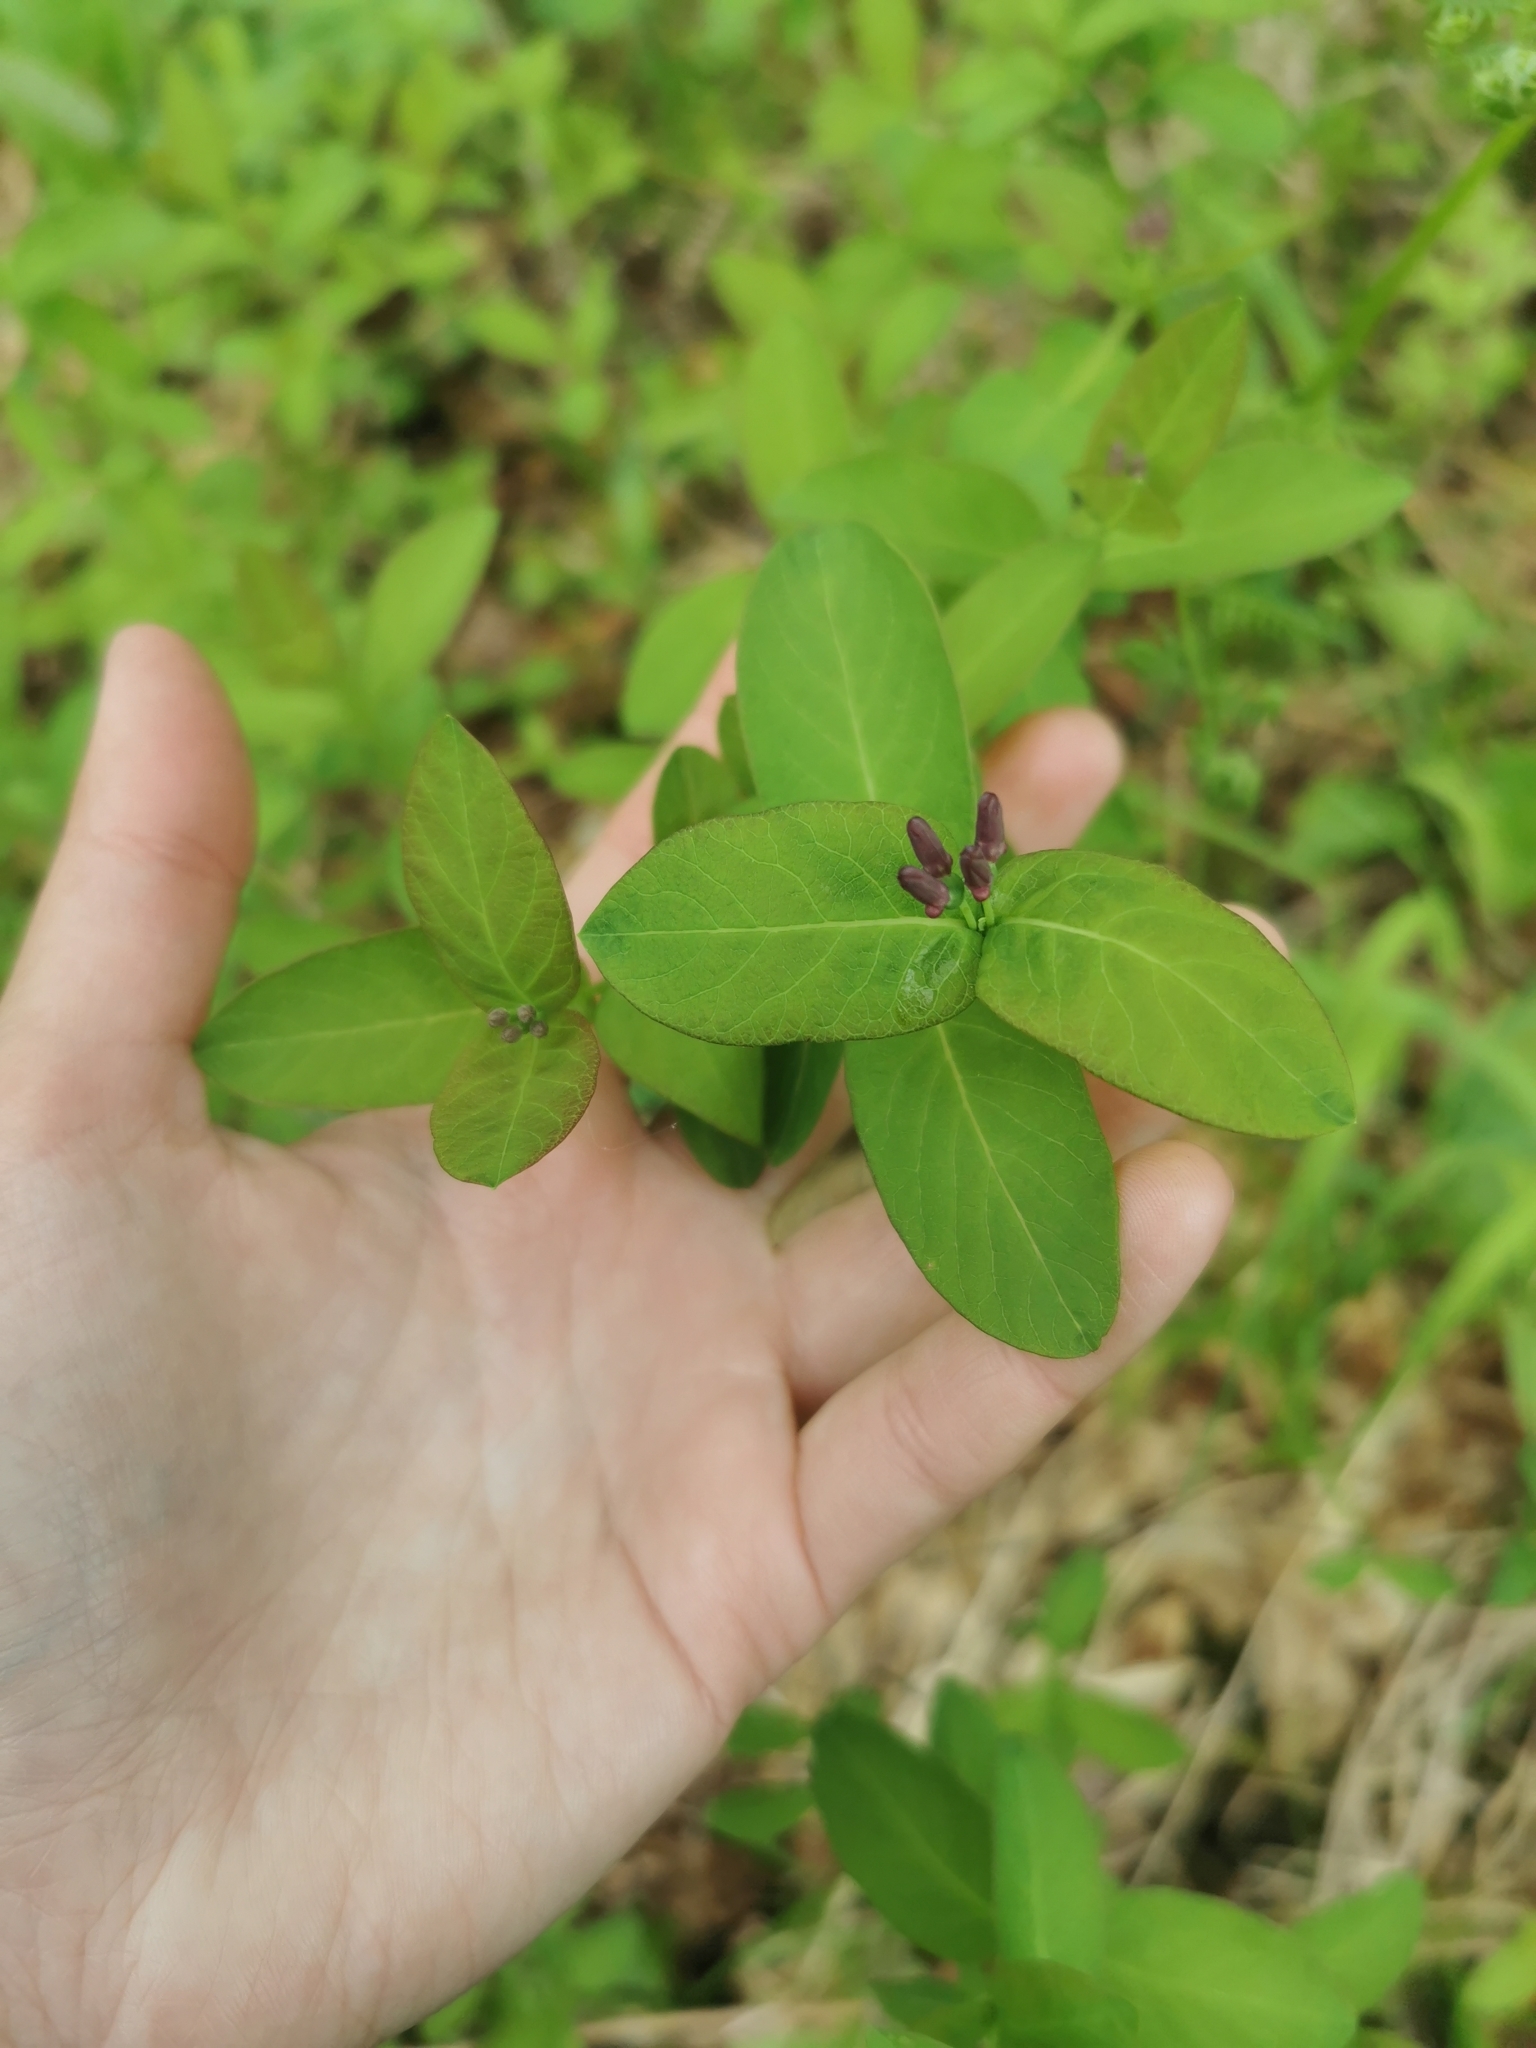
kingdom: Plantae
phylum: Tracheophyta
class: Magnoliopsida
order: Dipsacales
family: Caprifoliaceae
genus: Lonicera
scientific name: Lonicera chamissoi
